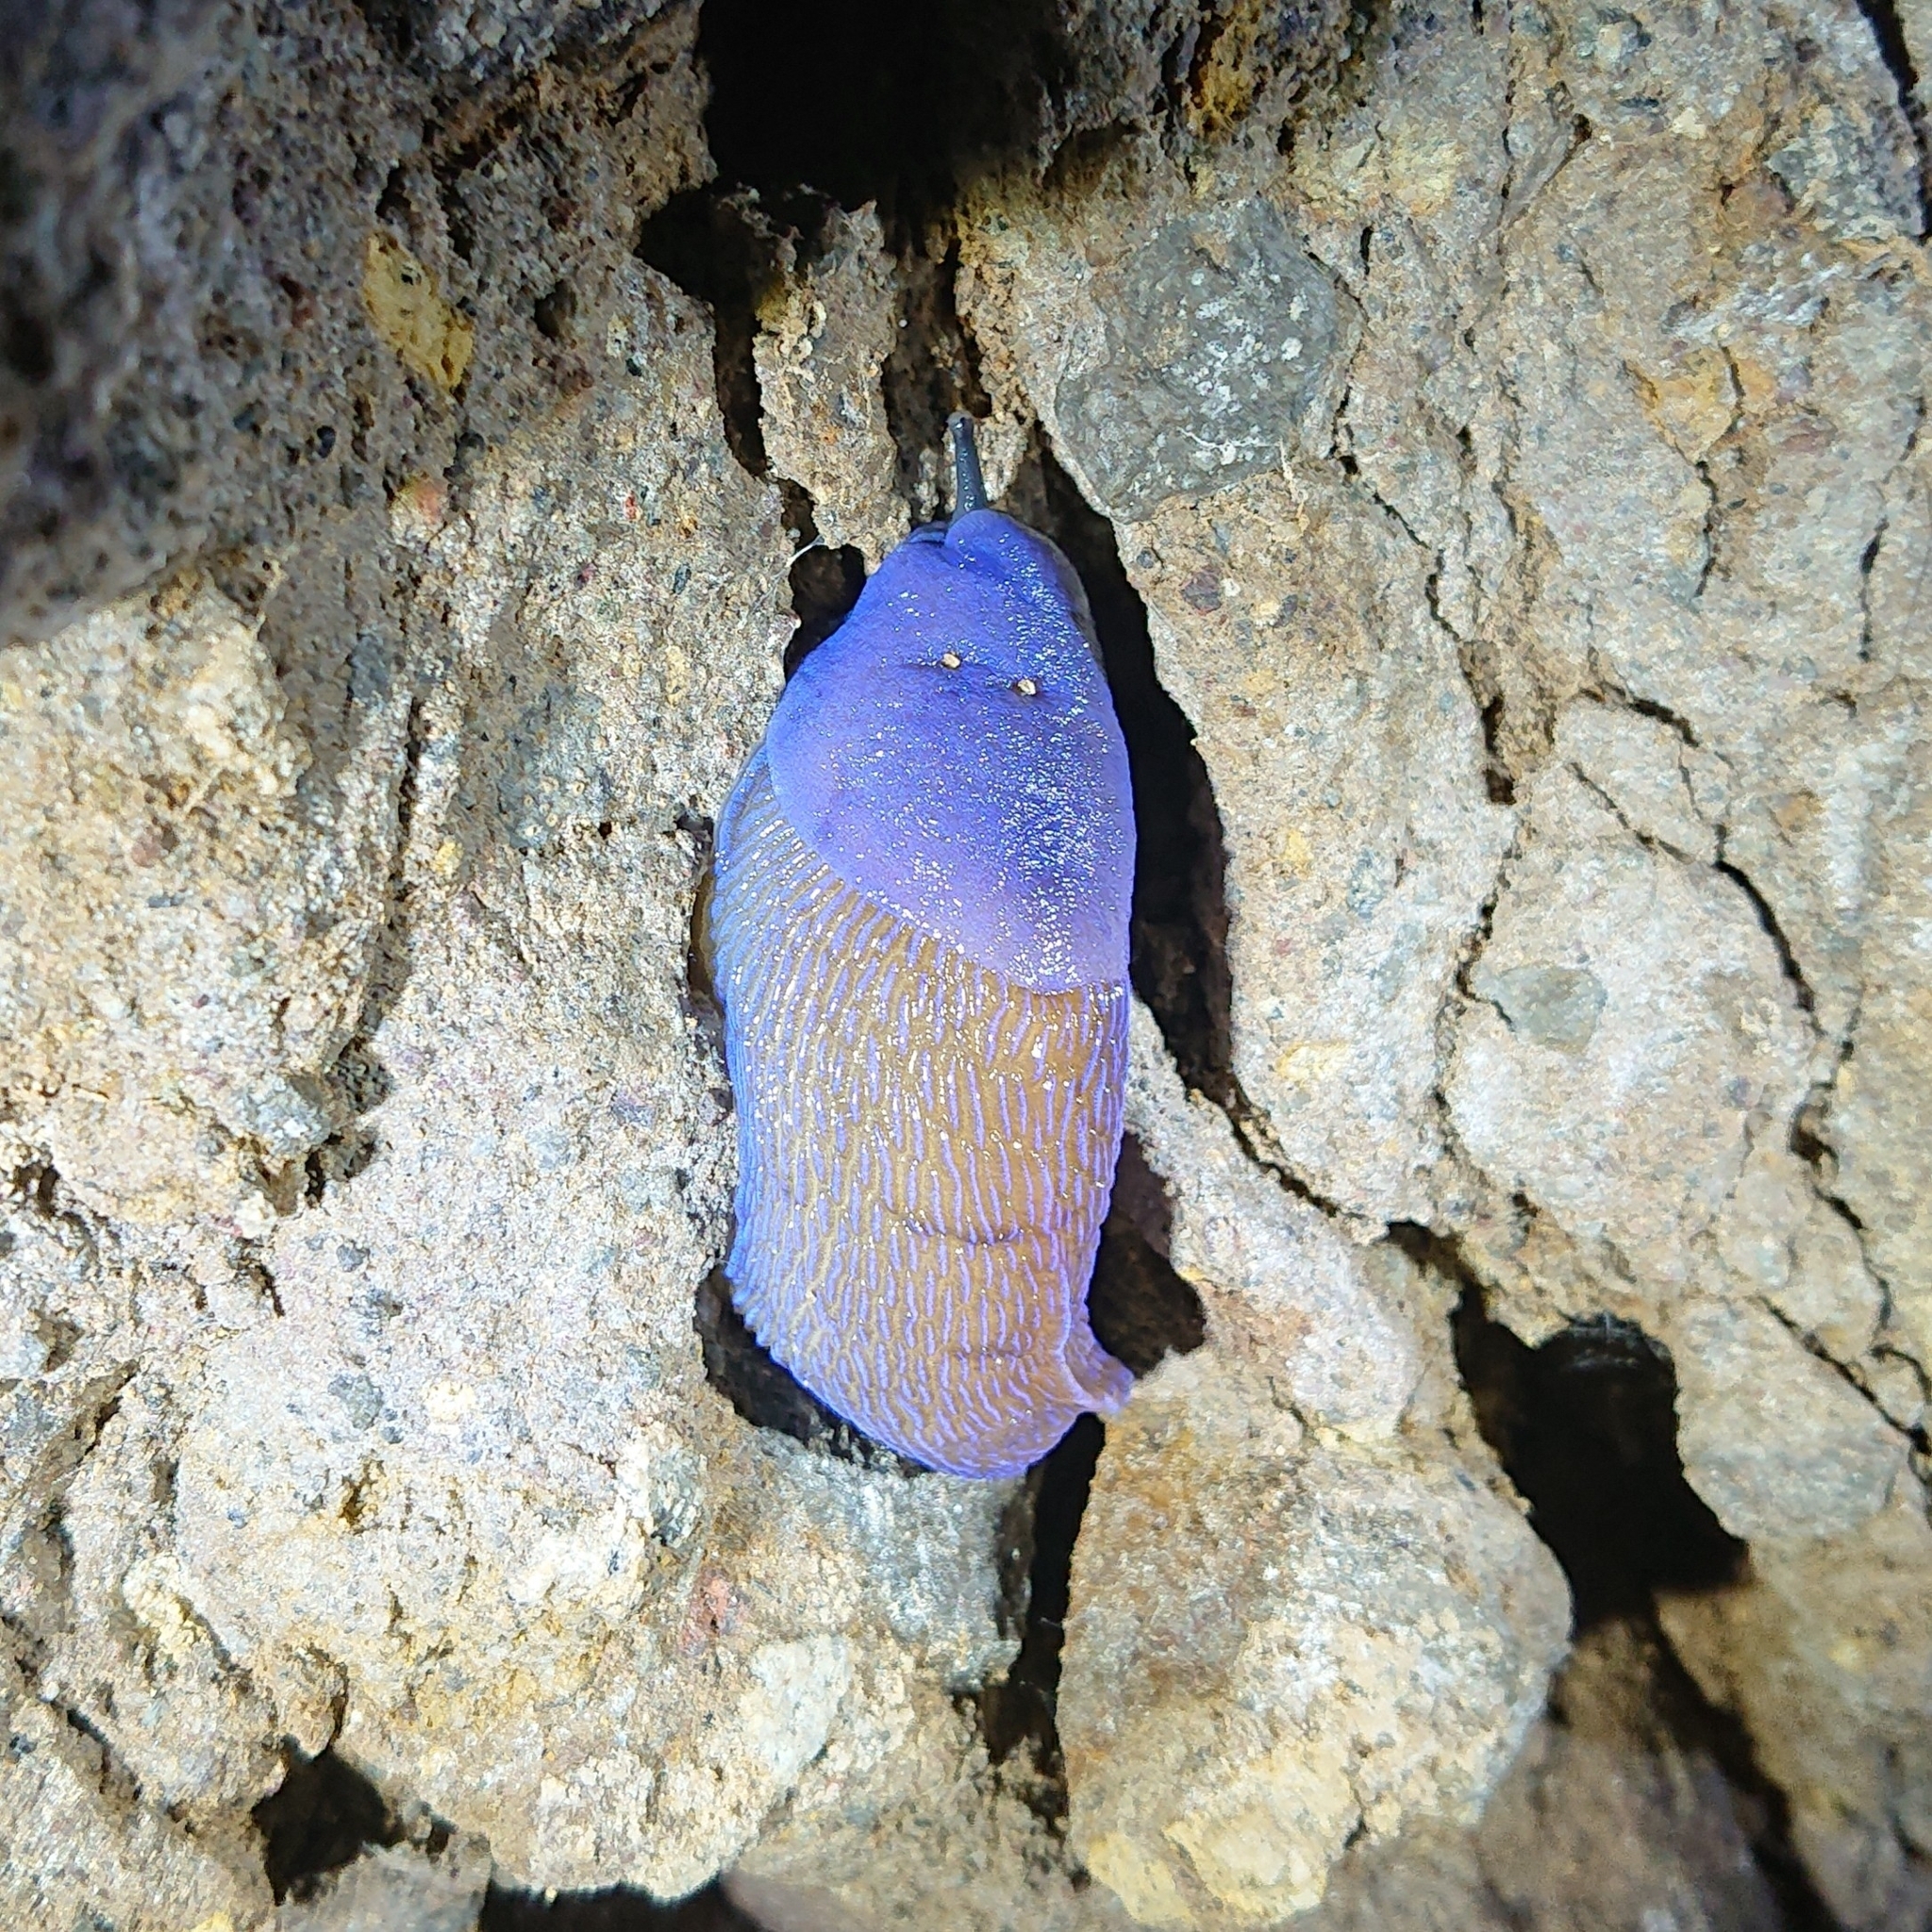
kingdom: Animalia
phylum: Mollusca
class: Gastropoda
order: Stylommatophora
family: Limacidae
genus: Bielzia
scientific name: Bielzia coerulans
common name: Carpathian blue slug
